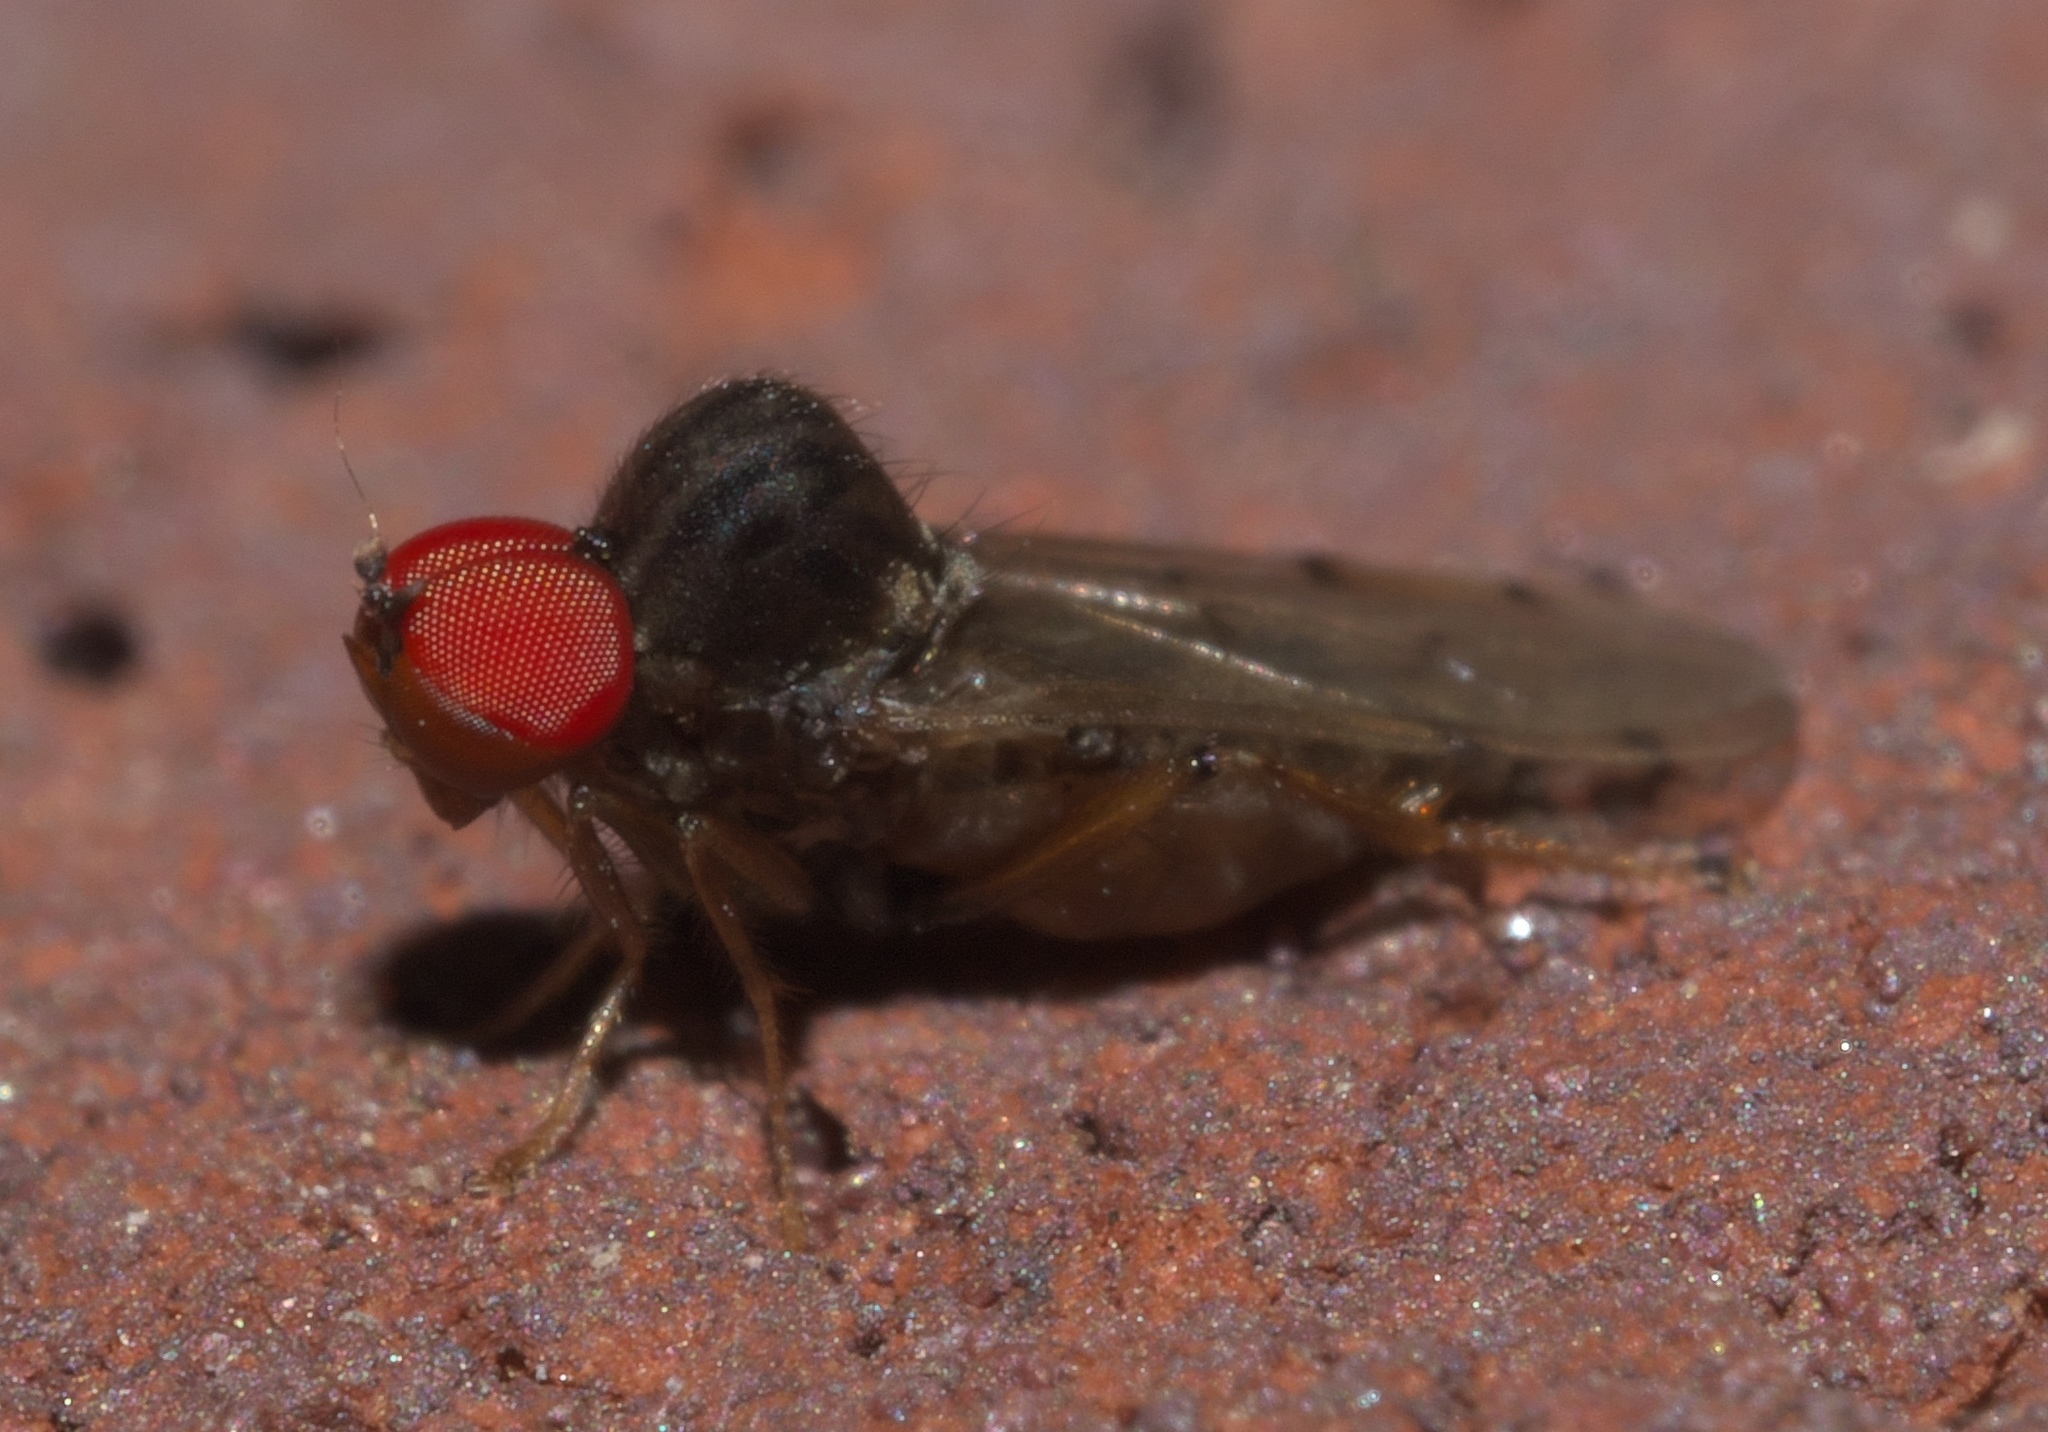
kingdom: Animalia
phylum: Arthropoda
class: Insecta
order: Diptera
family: Hybotidae
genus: Syneches
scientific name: Syneches simplex
